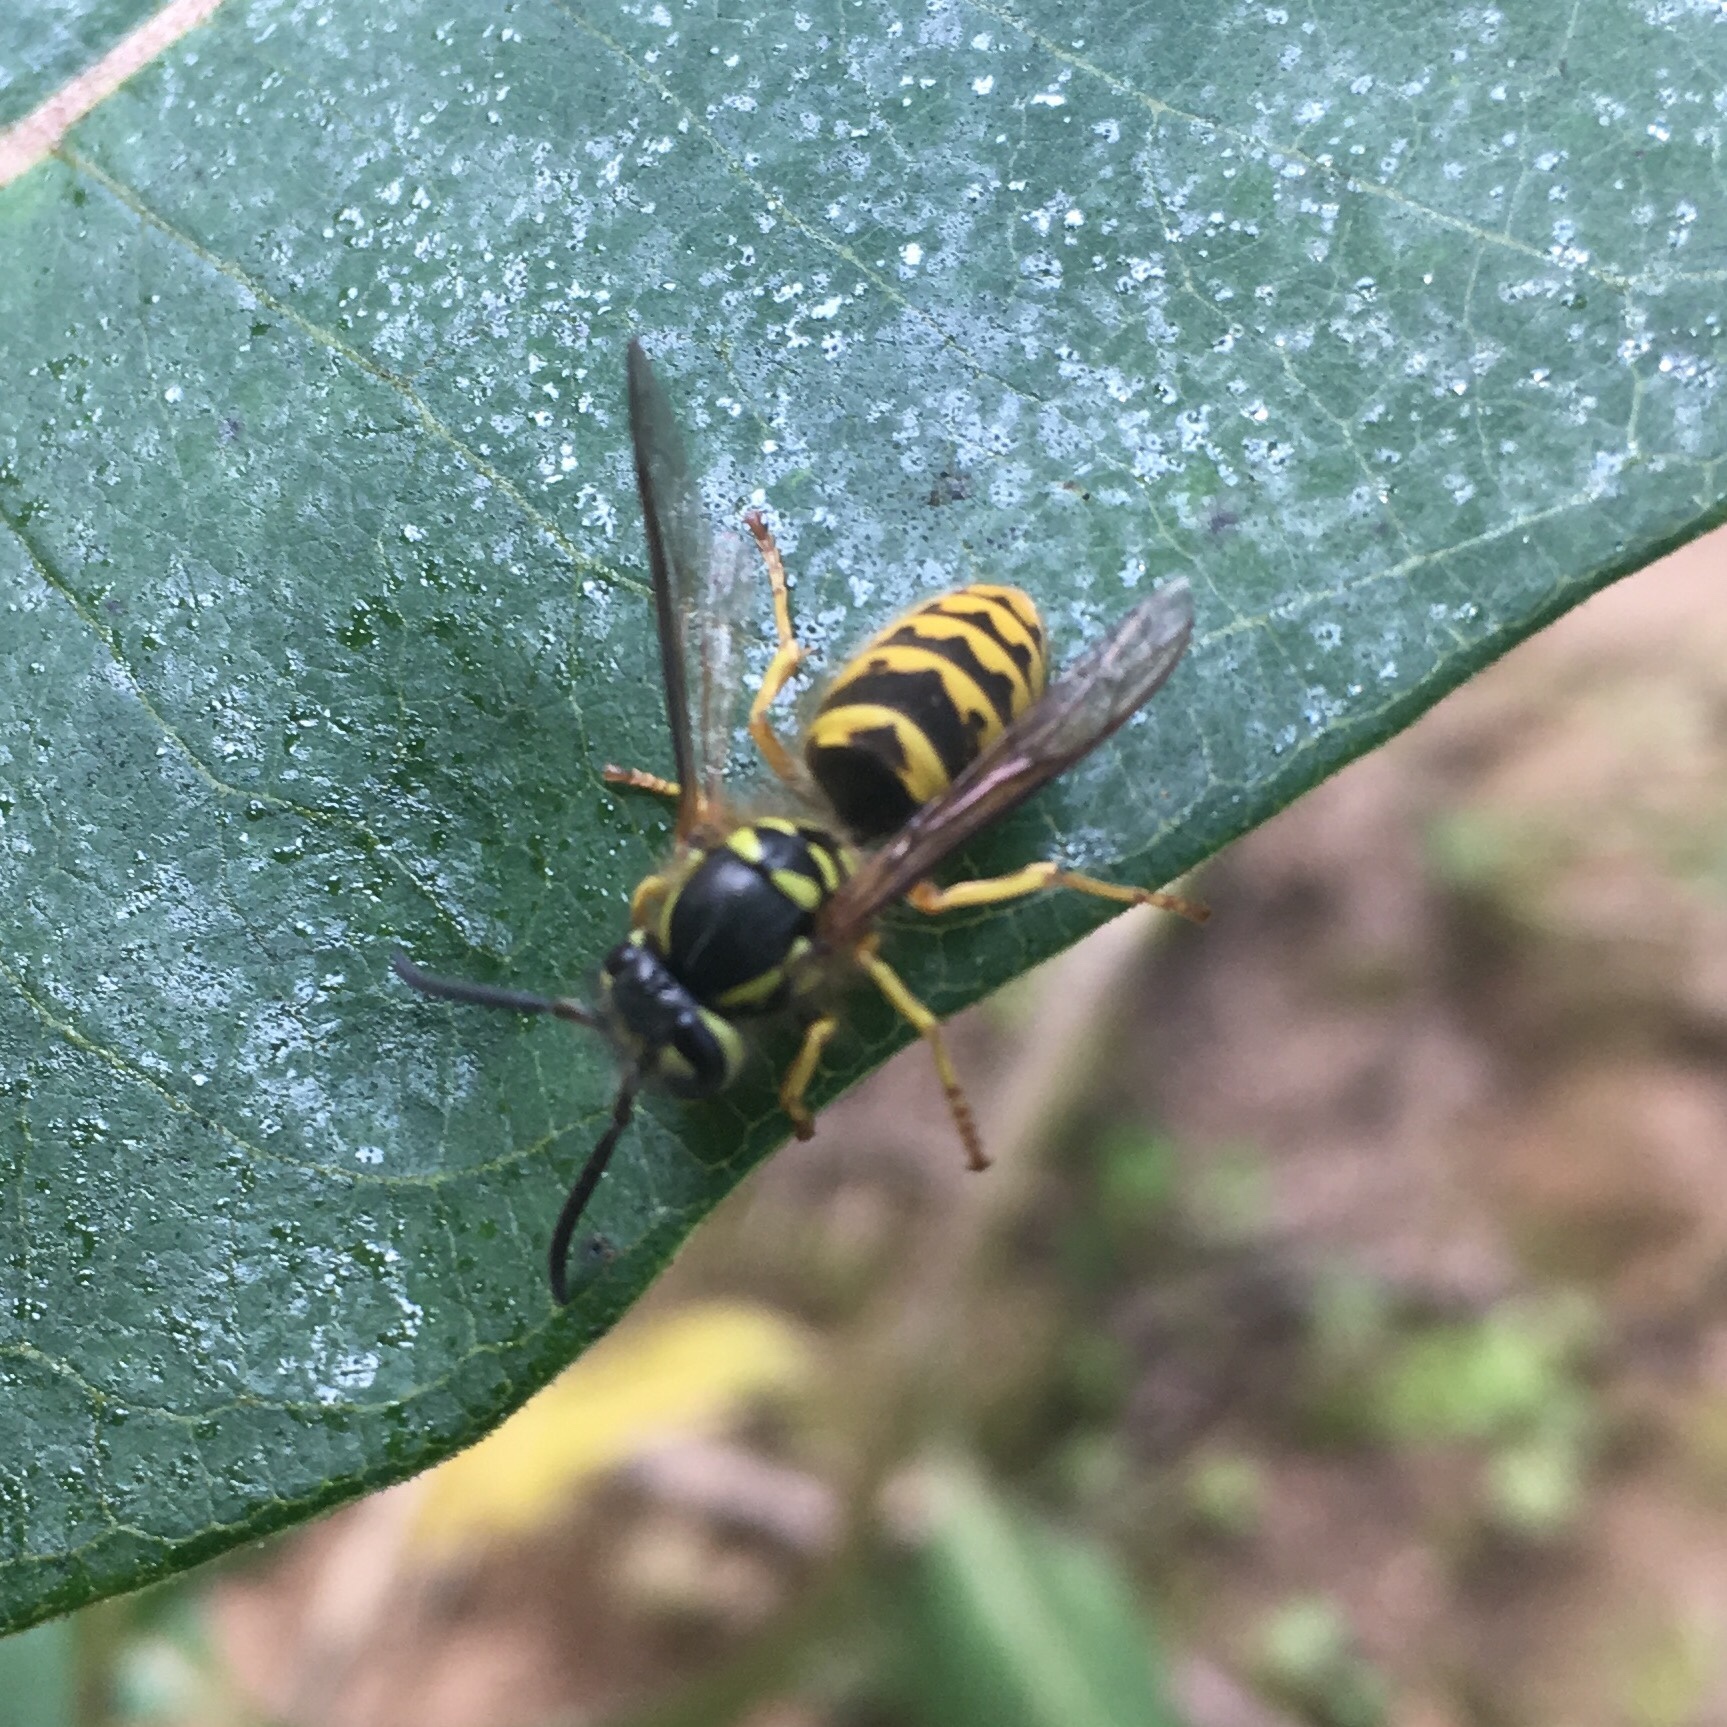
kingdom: Animalia
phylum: Arthropoda
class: Insecta
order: Hymenoptera
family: Vespidae
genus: Vespula
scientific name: Vespula germanica
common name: German wasp
